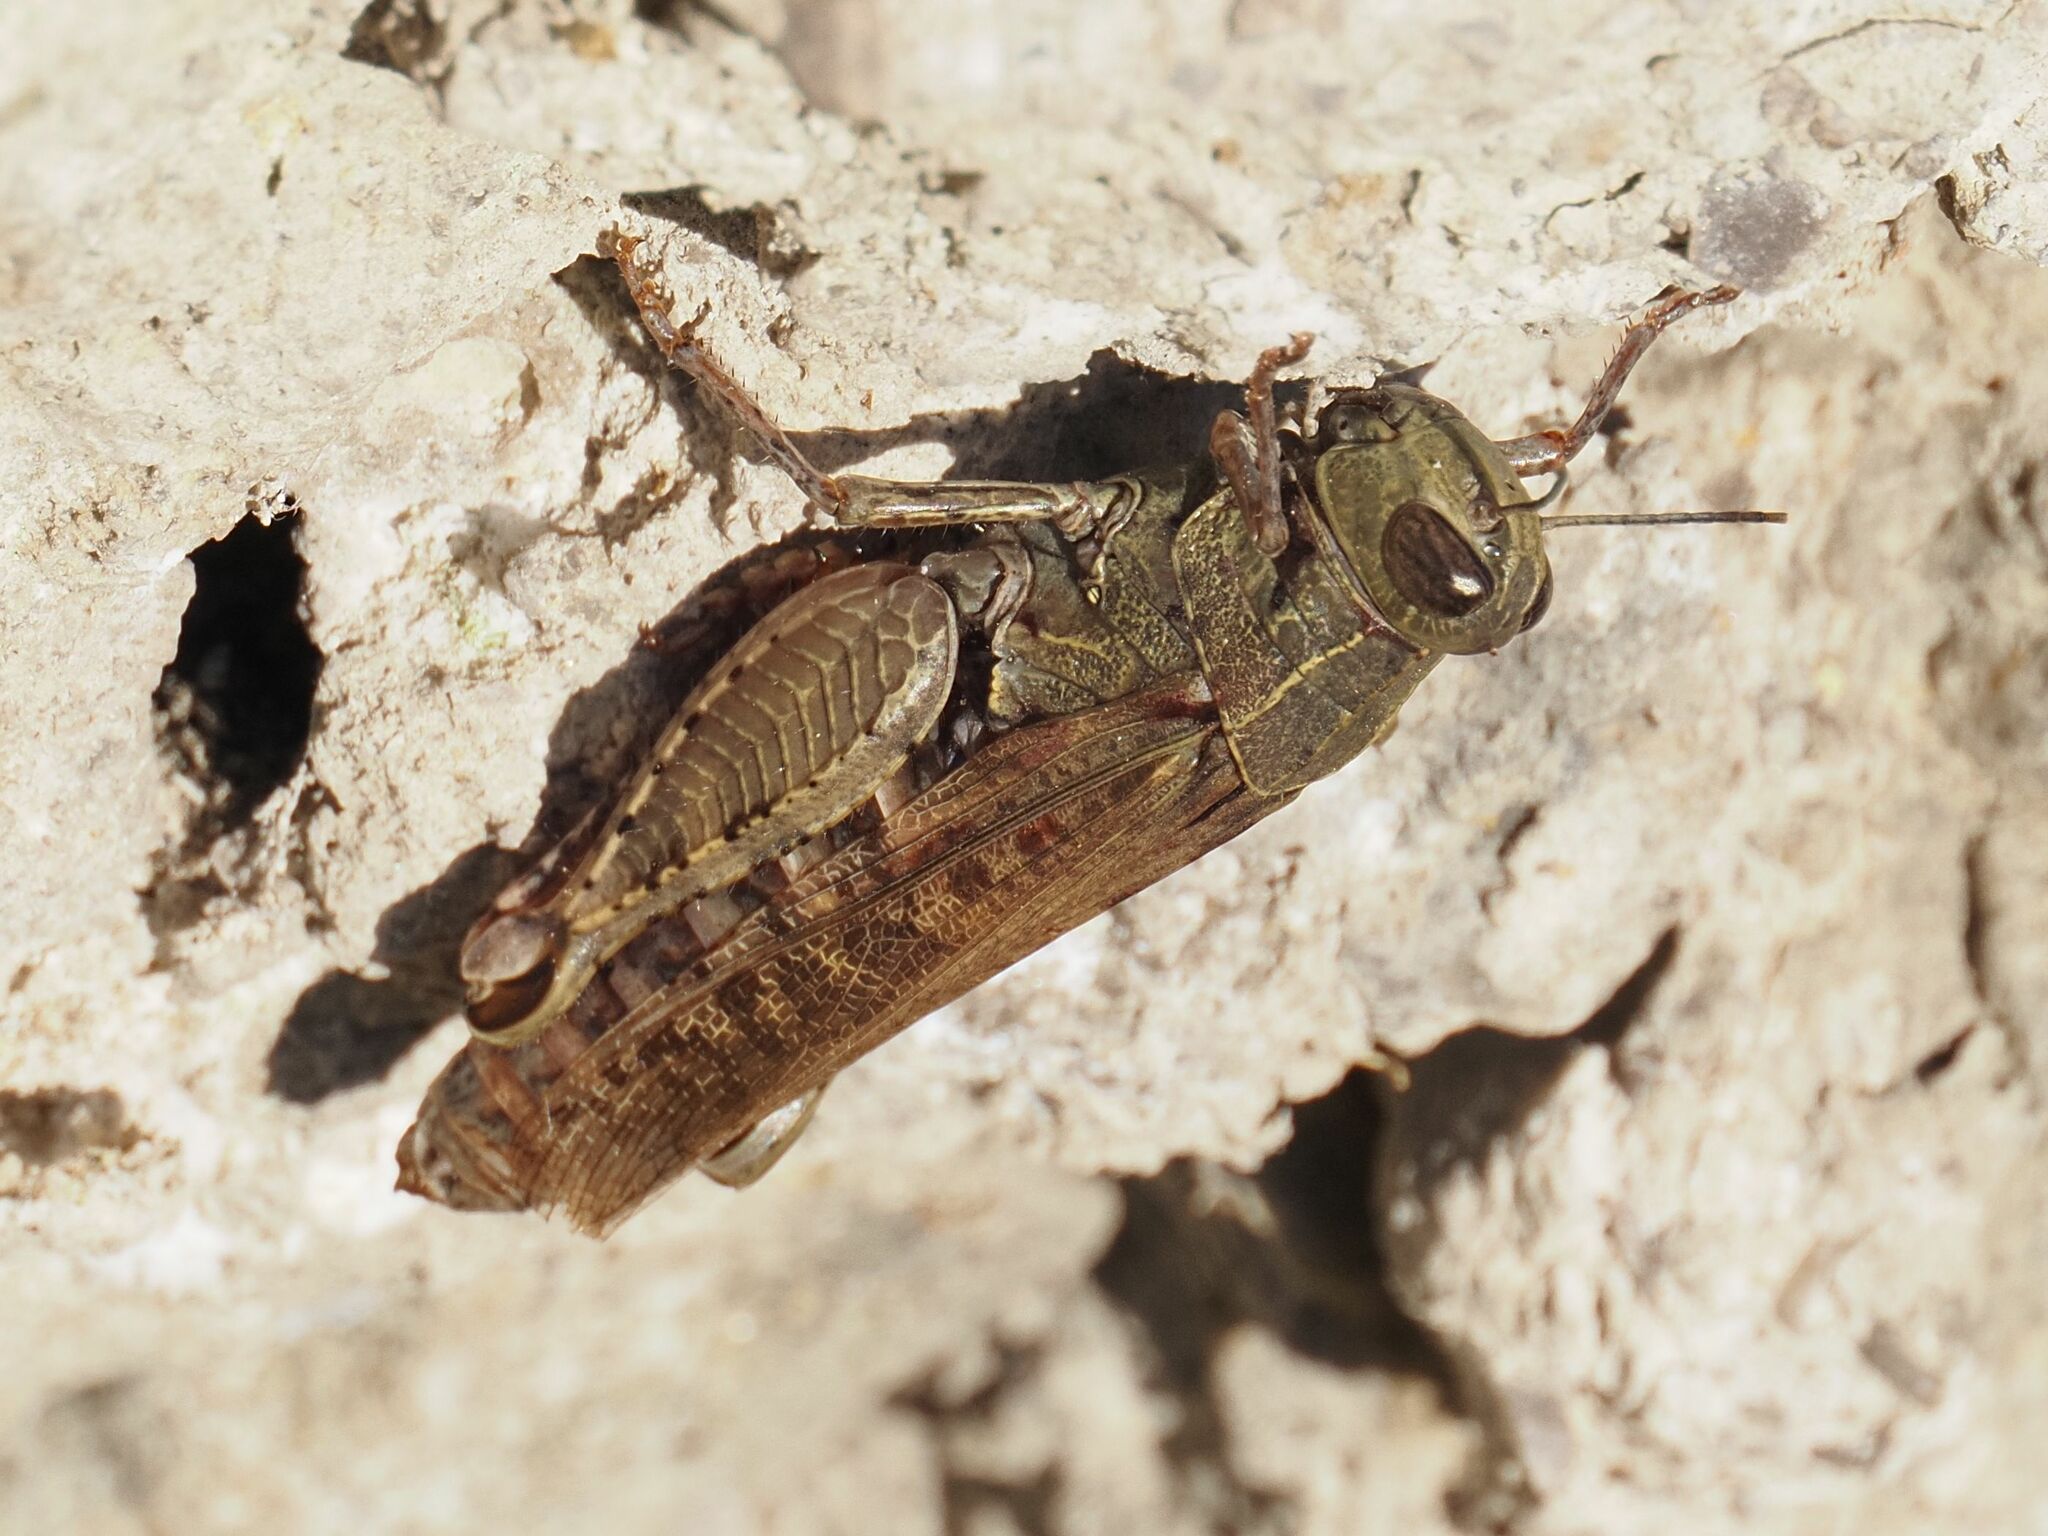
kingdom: Animalia
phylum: Arthropoda
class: Insecta
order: Orthoptera
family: Acrididae
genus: Calliptamus
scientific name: Calliptamus italicus
